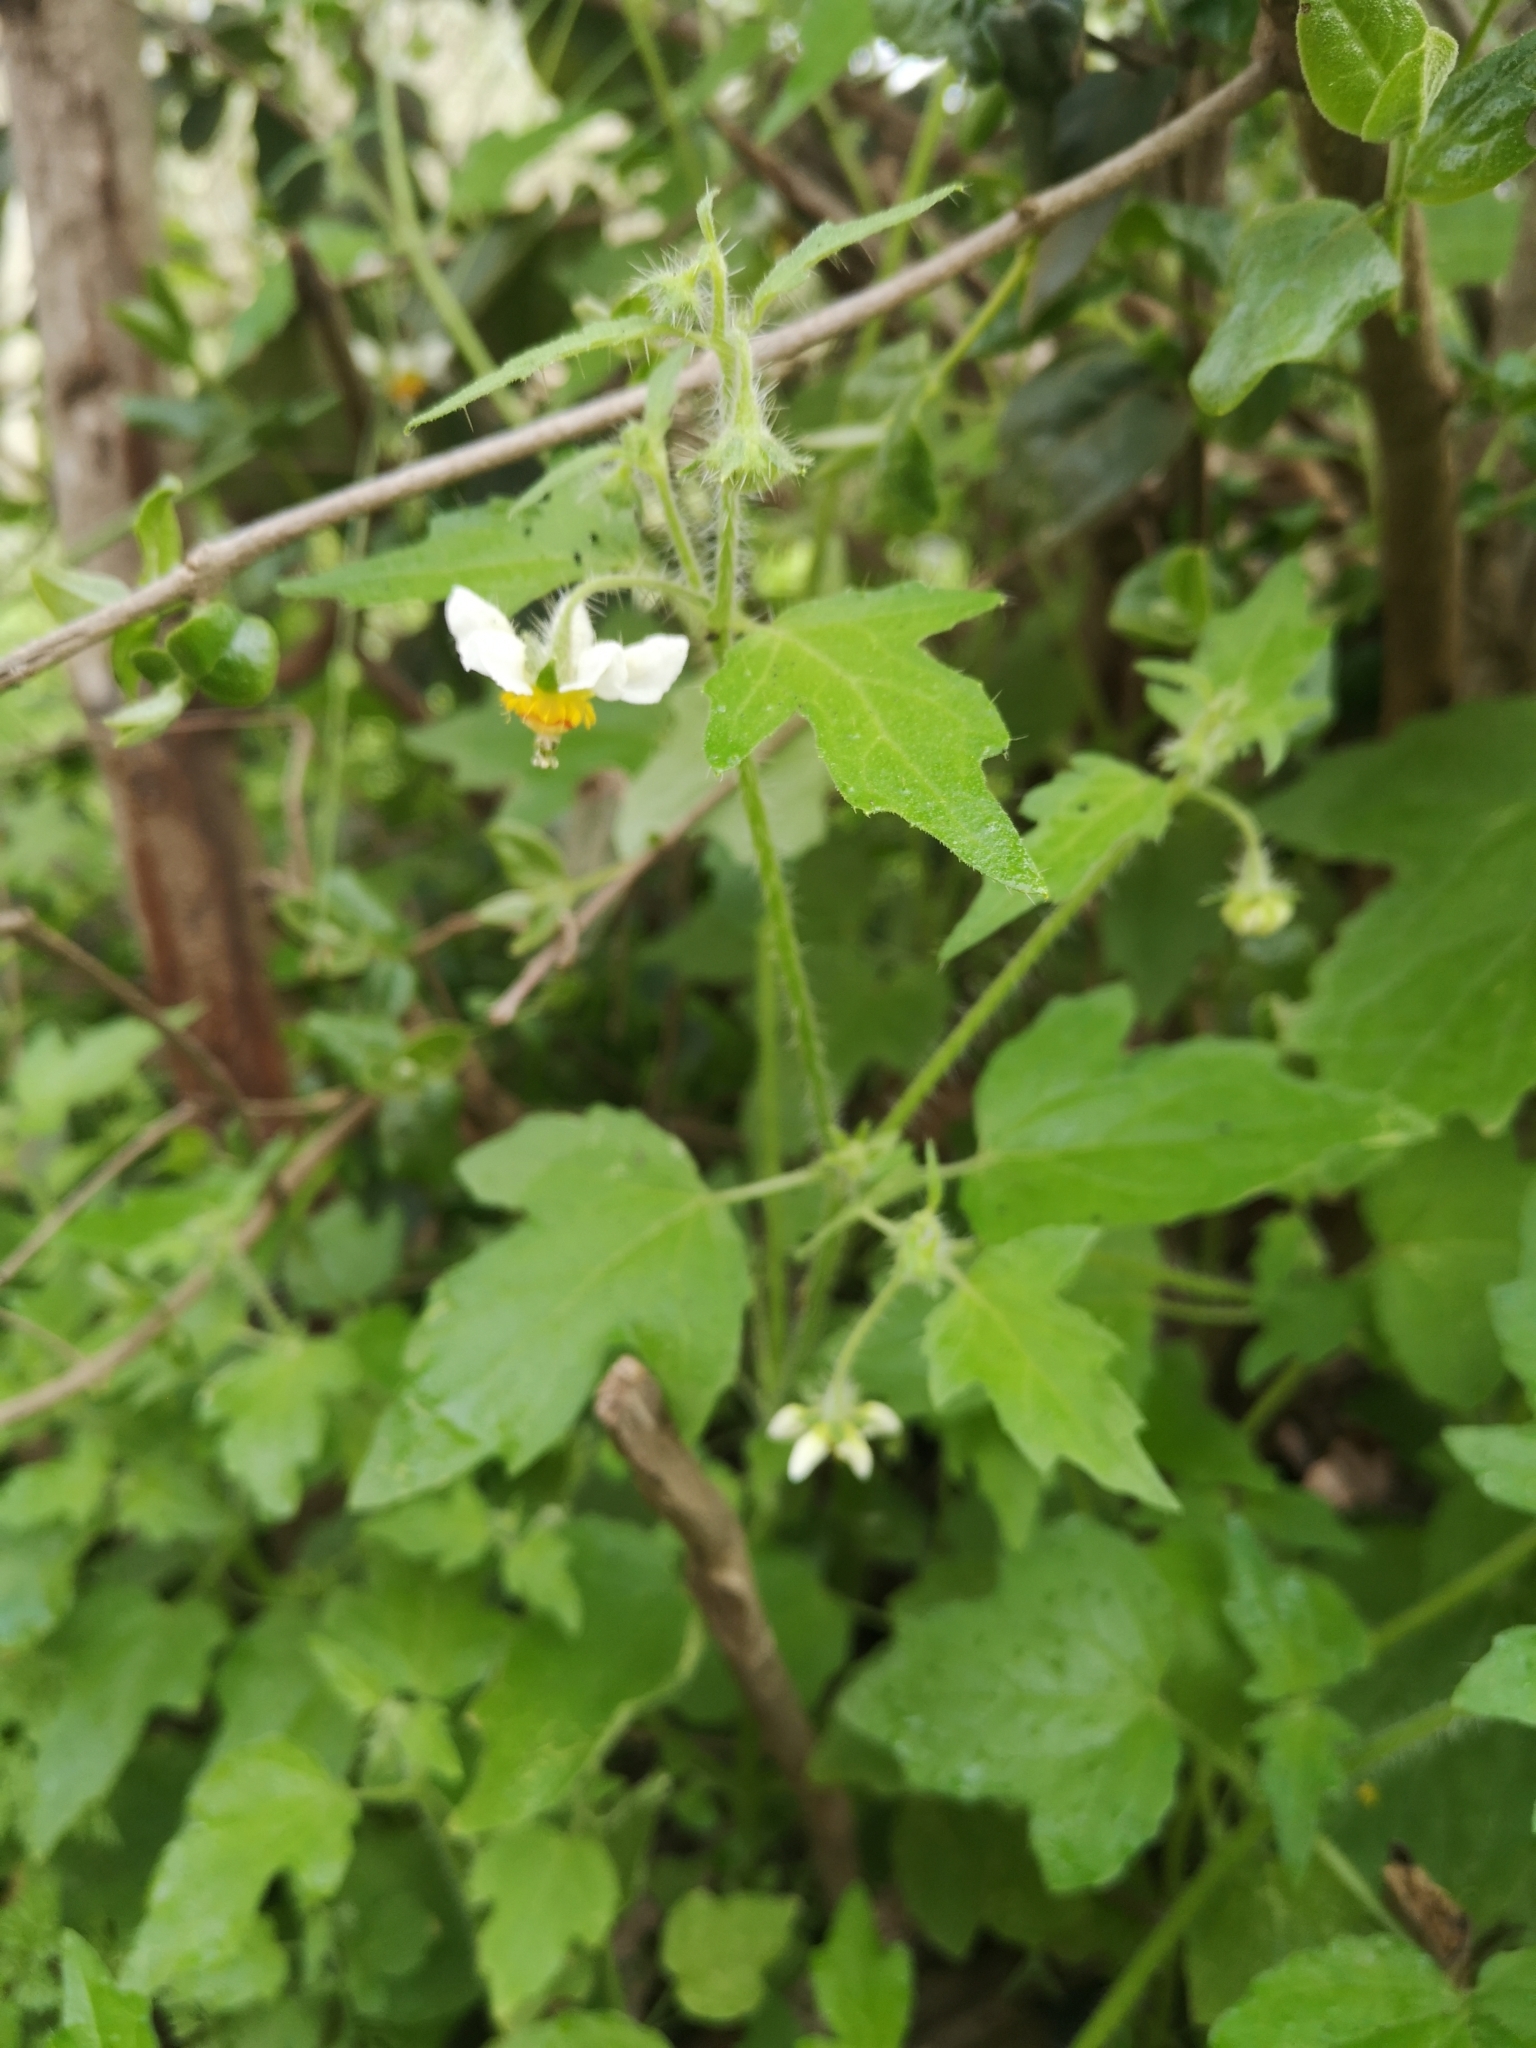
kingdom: Plantae
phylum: Tracheophyta
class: Magnoliopsida
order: Cornales
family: Loasaceae
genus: Loasa
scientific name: Loasa triloba
